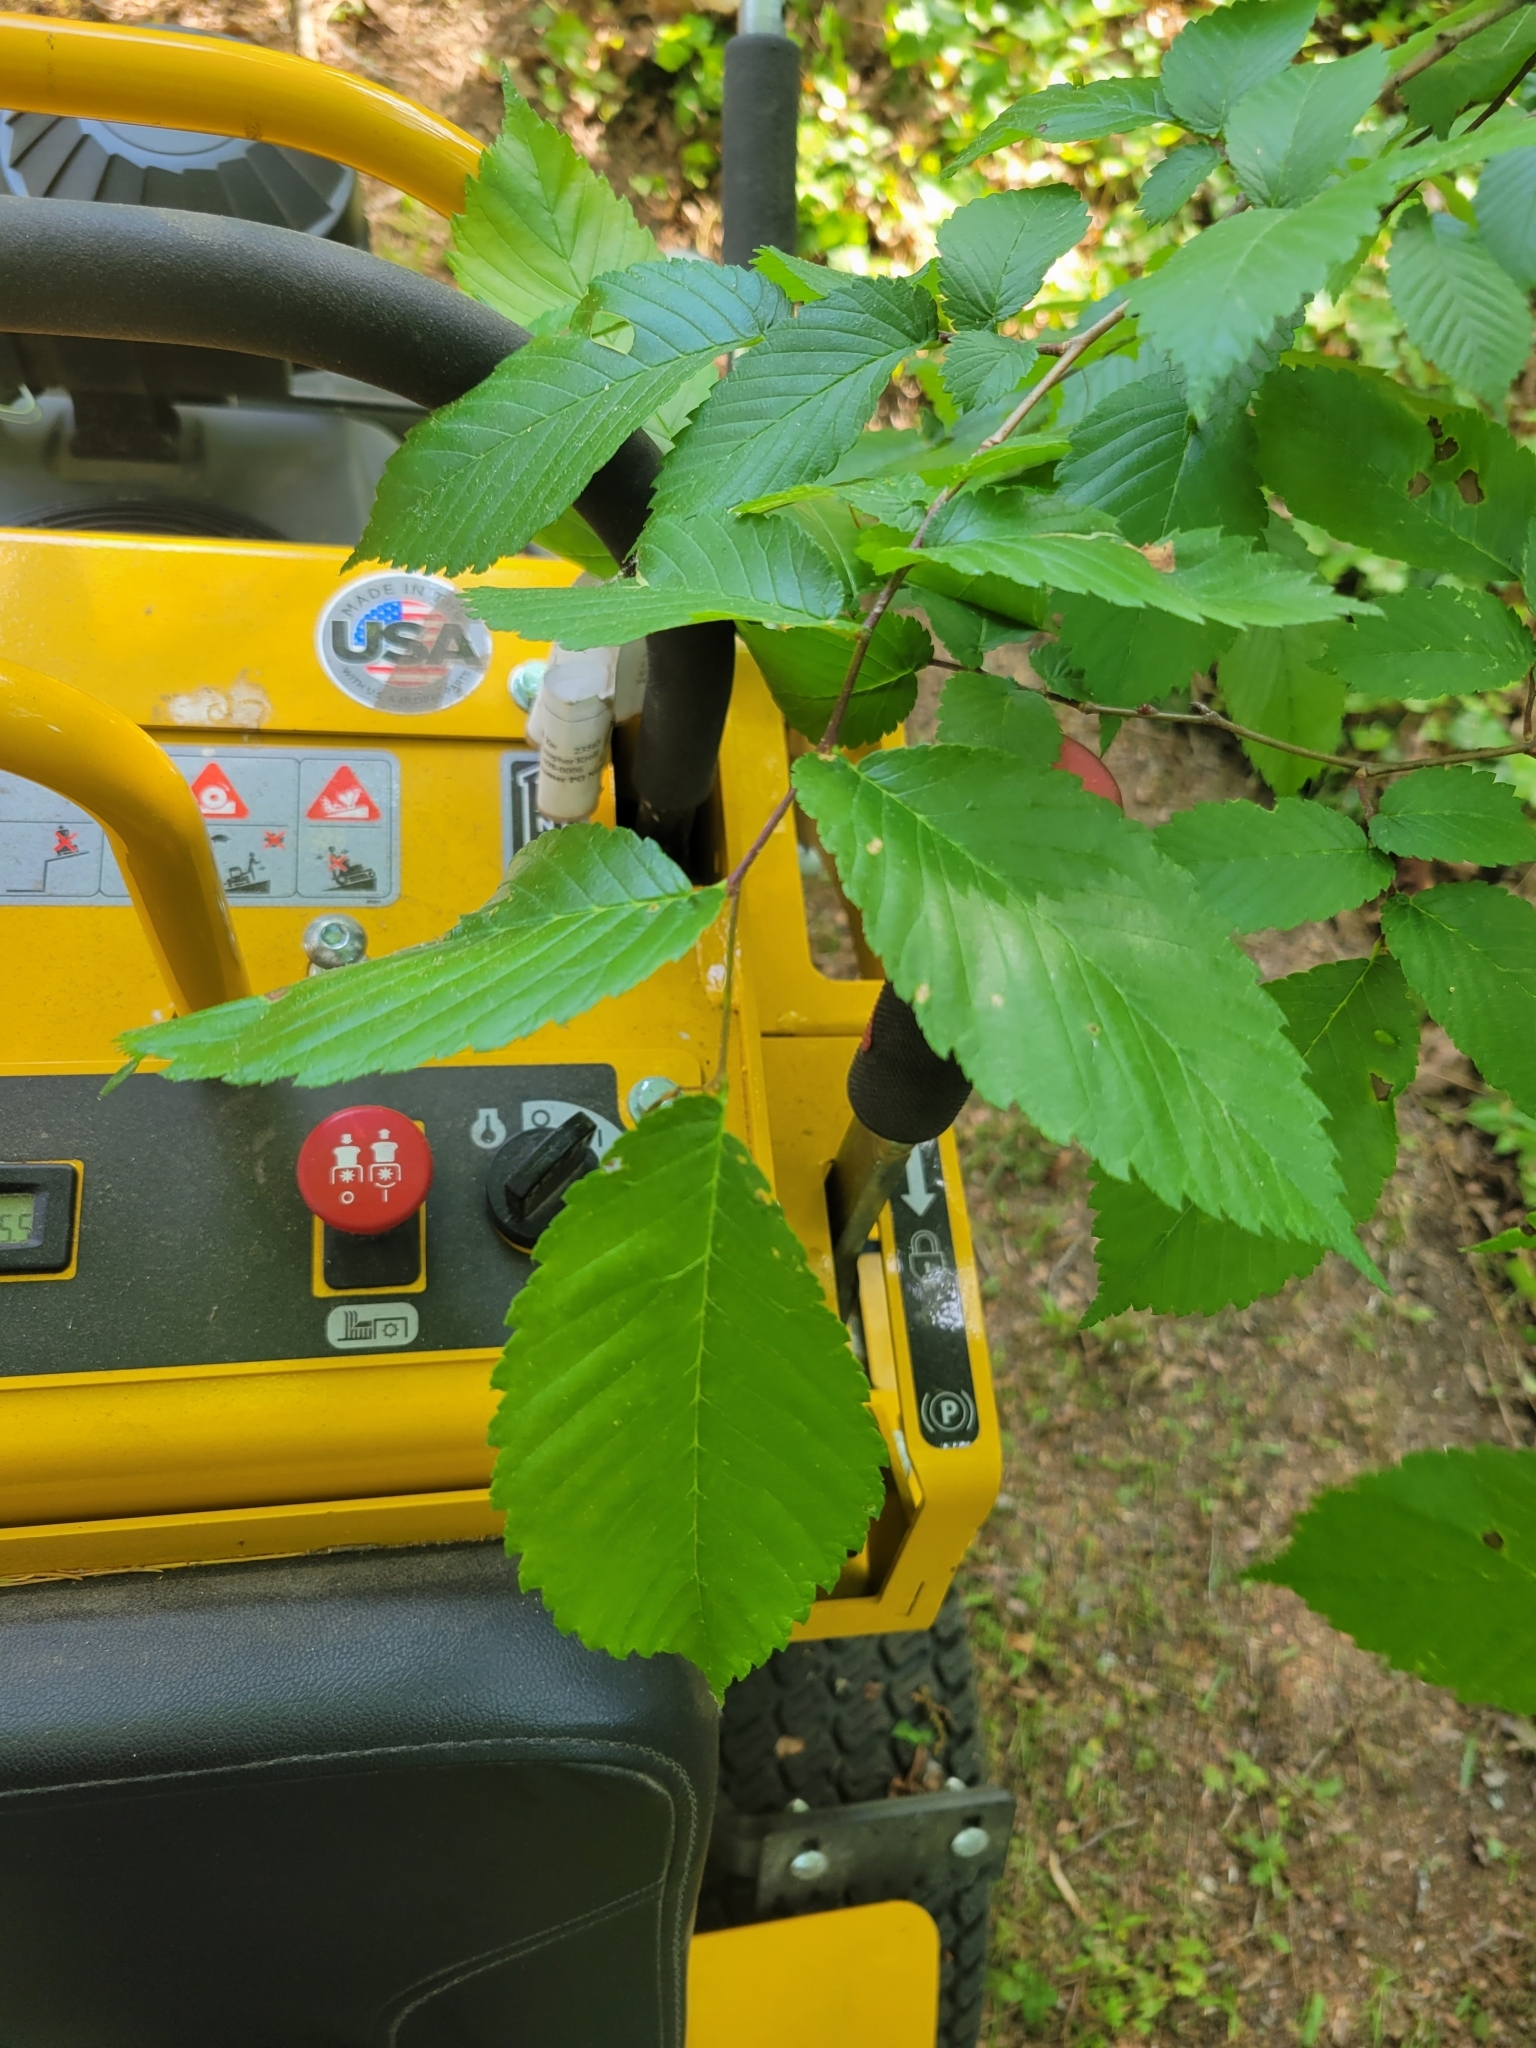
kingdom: Plantae
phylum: Tracheophyta
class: Magnoliopsida
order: Rosales
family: Ulmaceae
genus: Ulmus
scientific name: Ulmus americana
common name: American elm
